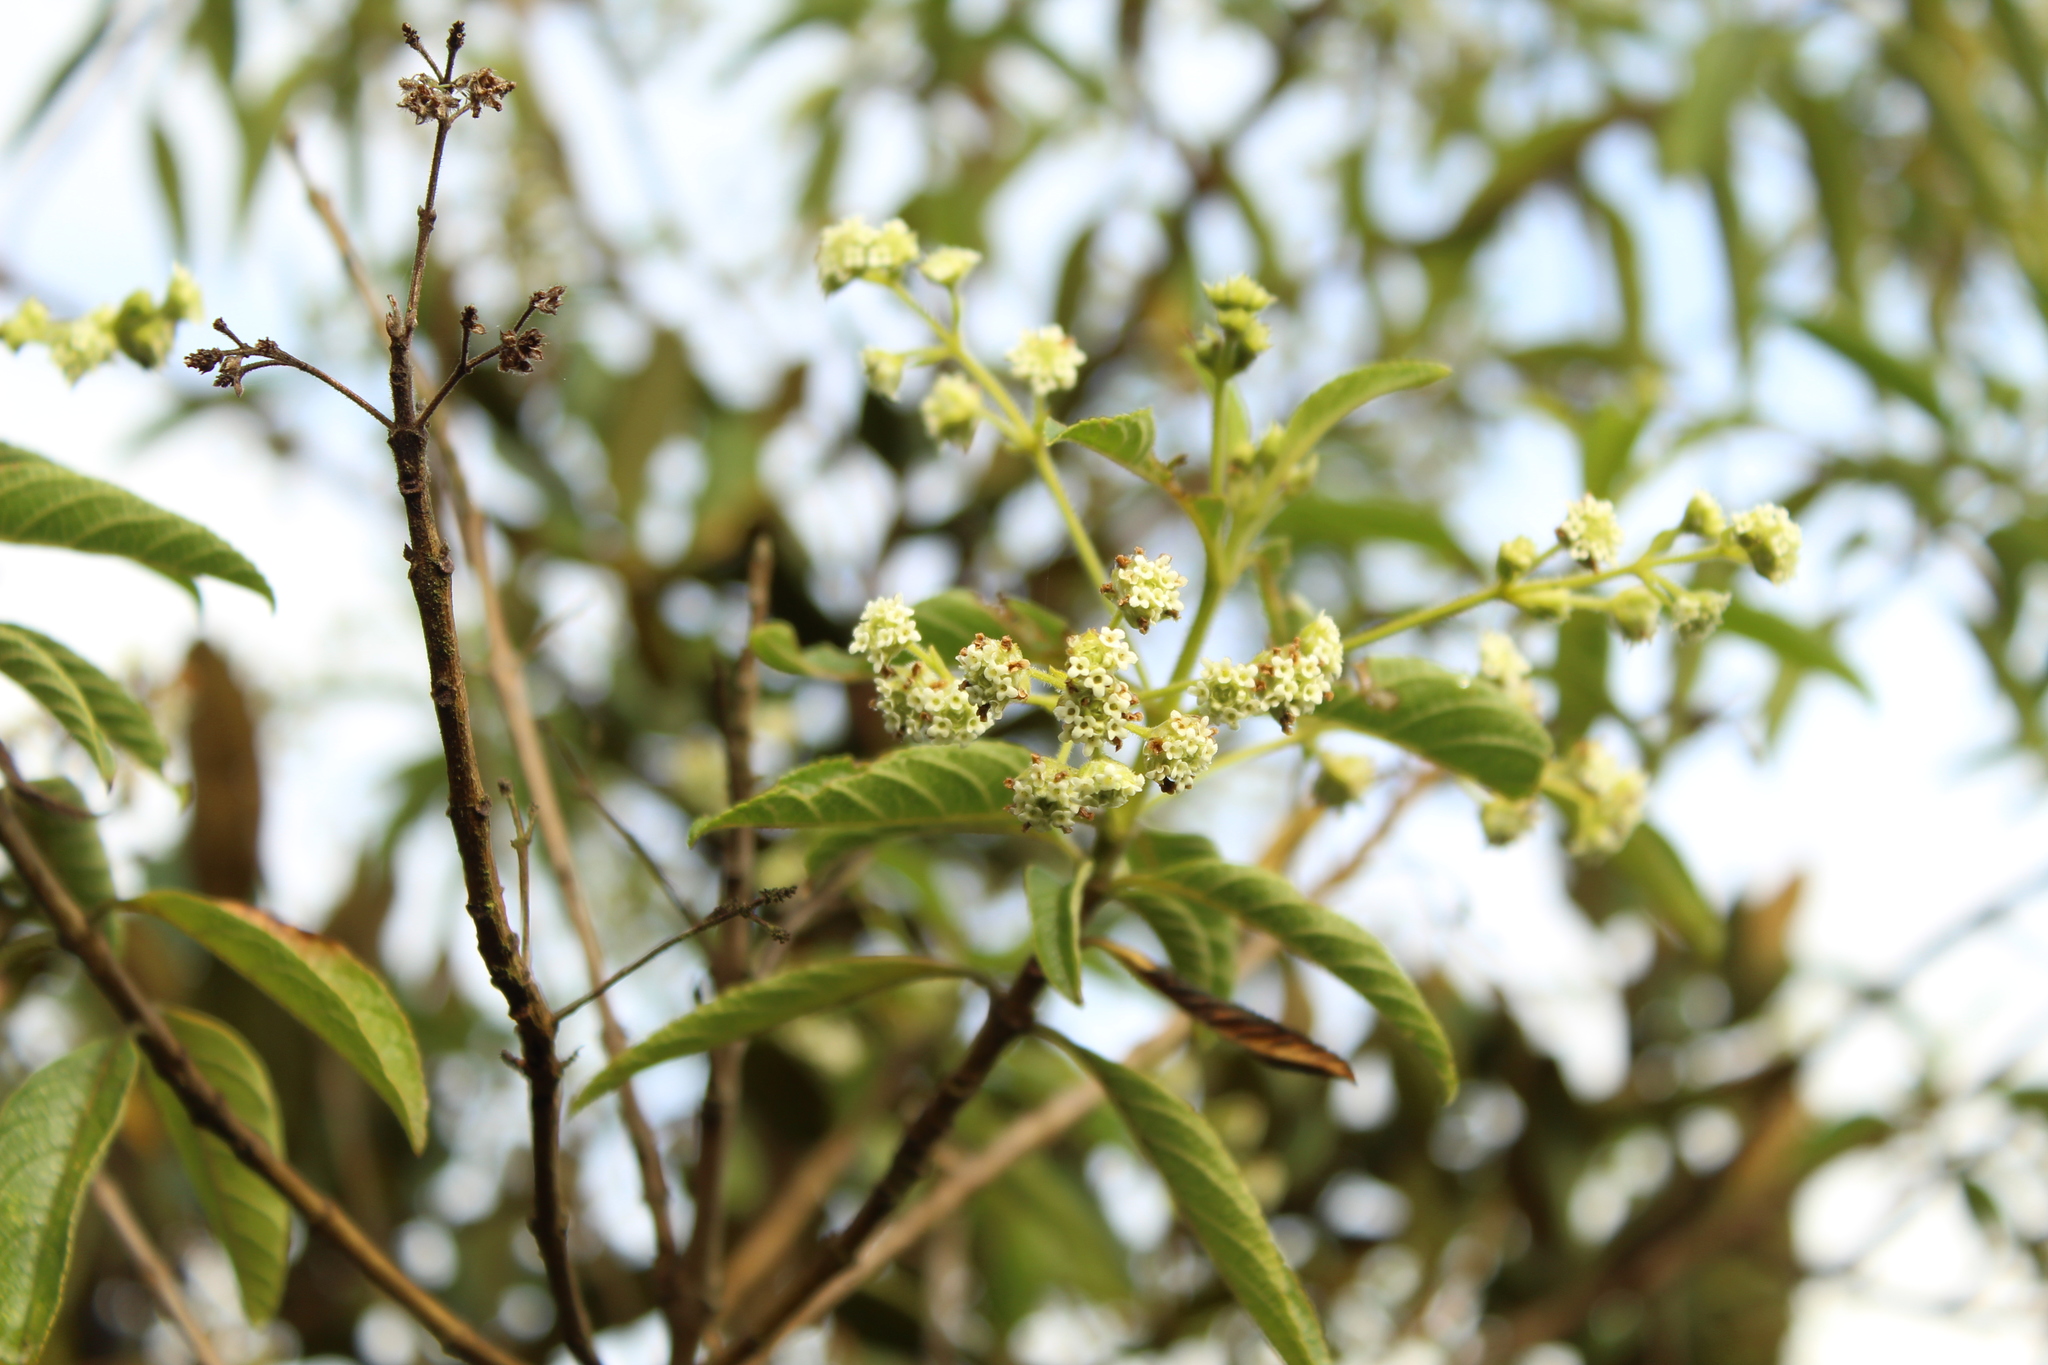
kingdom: Plantae
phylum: Tracheophyta
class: Magnoliopsida
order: Lamiales
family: Verbenaceae
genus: Lippia
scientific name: Lippia hirsuta
